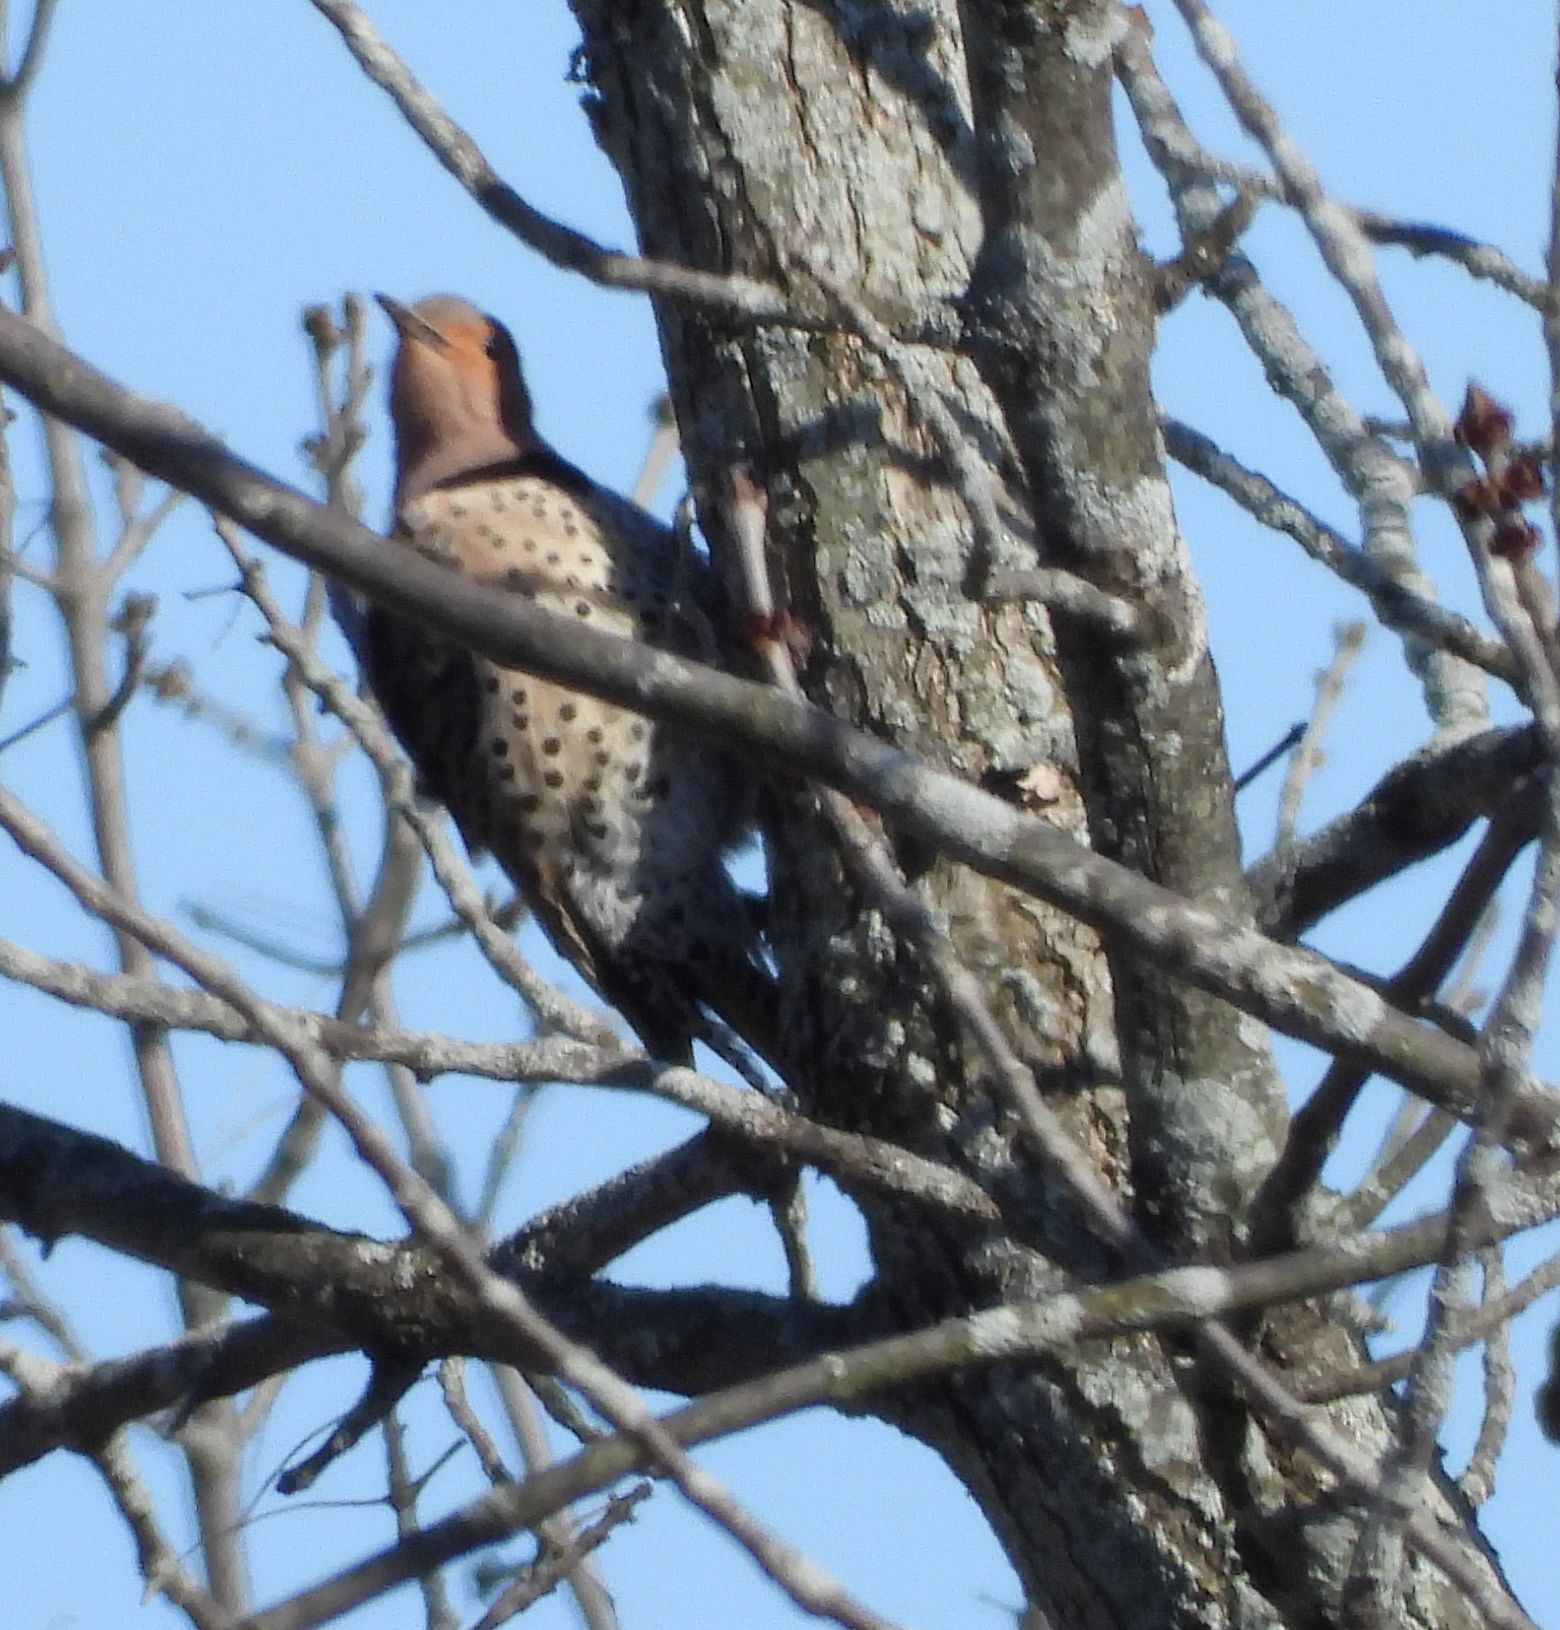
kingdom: Animalia
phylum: Chordata
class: Aves
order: Piciformes
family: Picidae
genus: Colaptes
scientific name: Colaptes auratus
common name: Northern flicker
